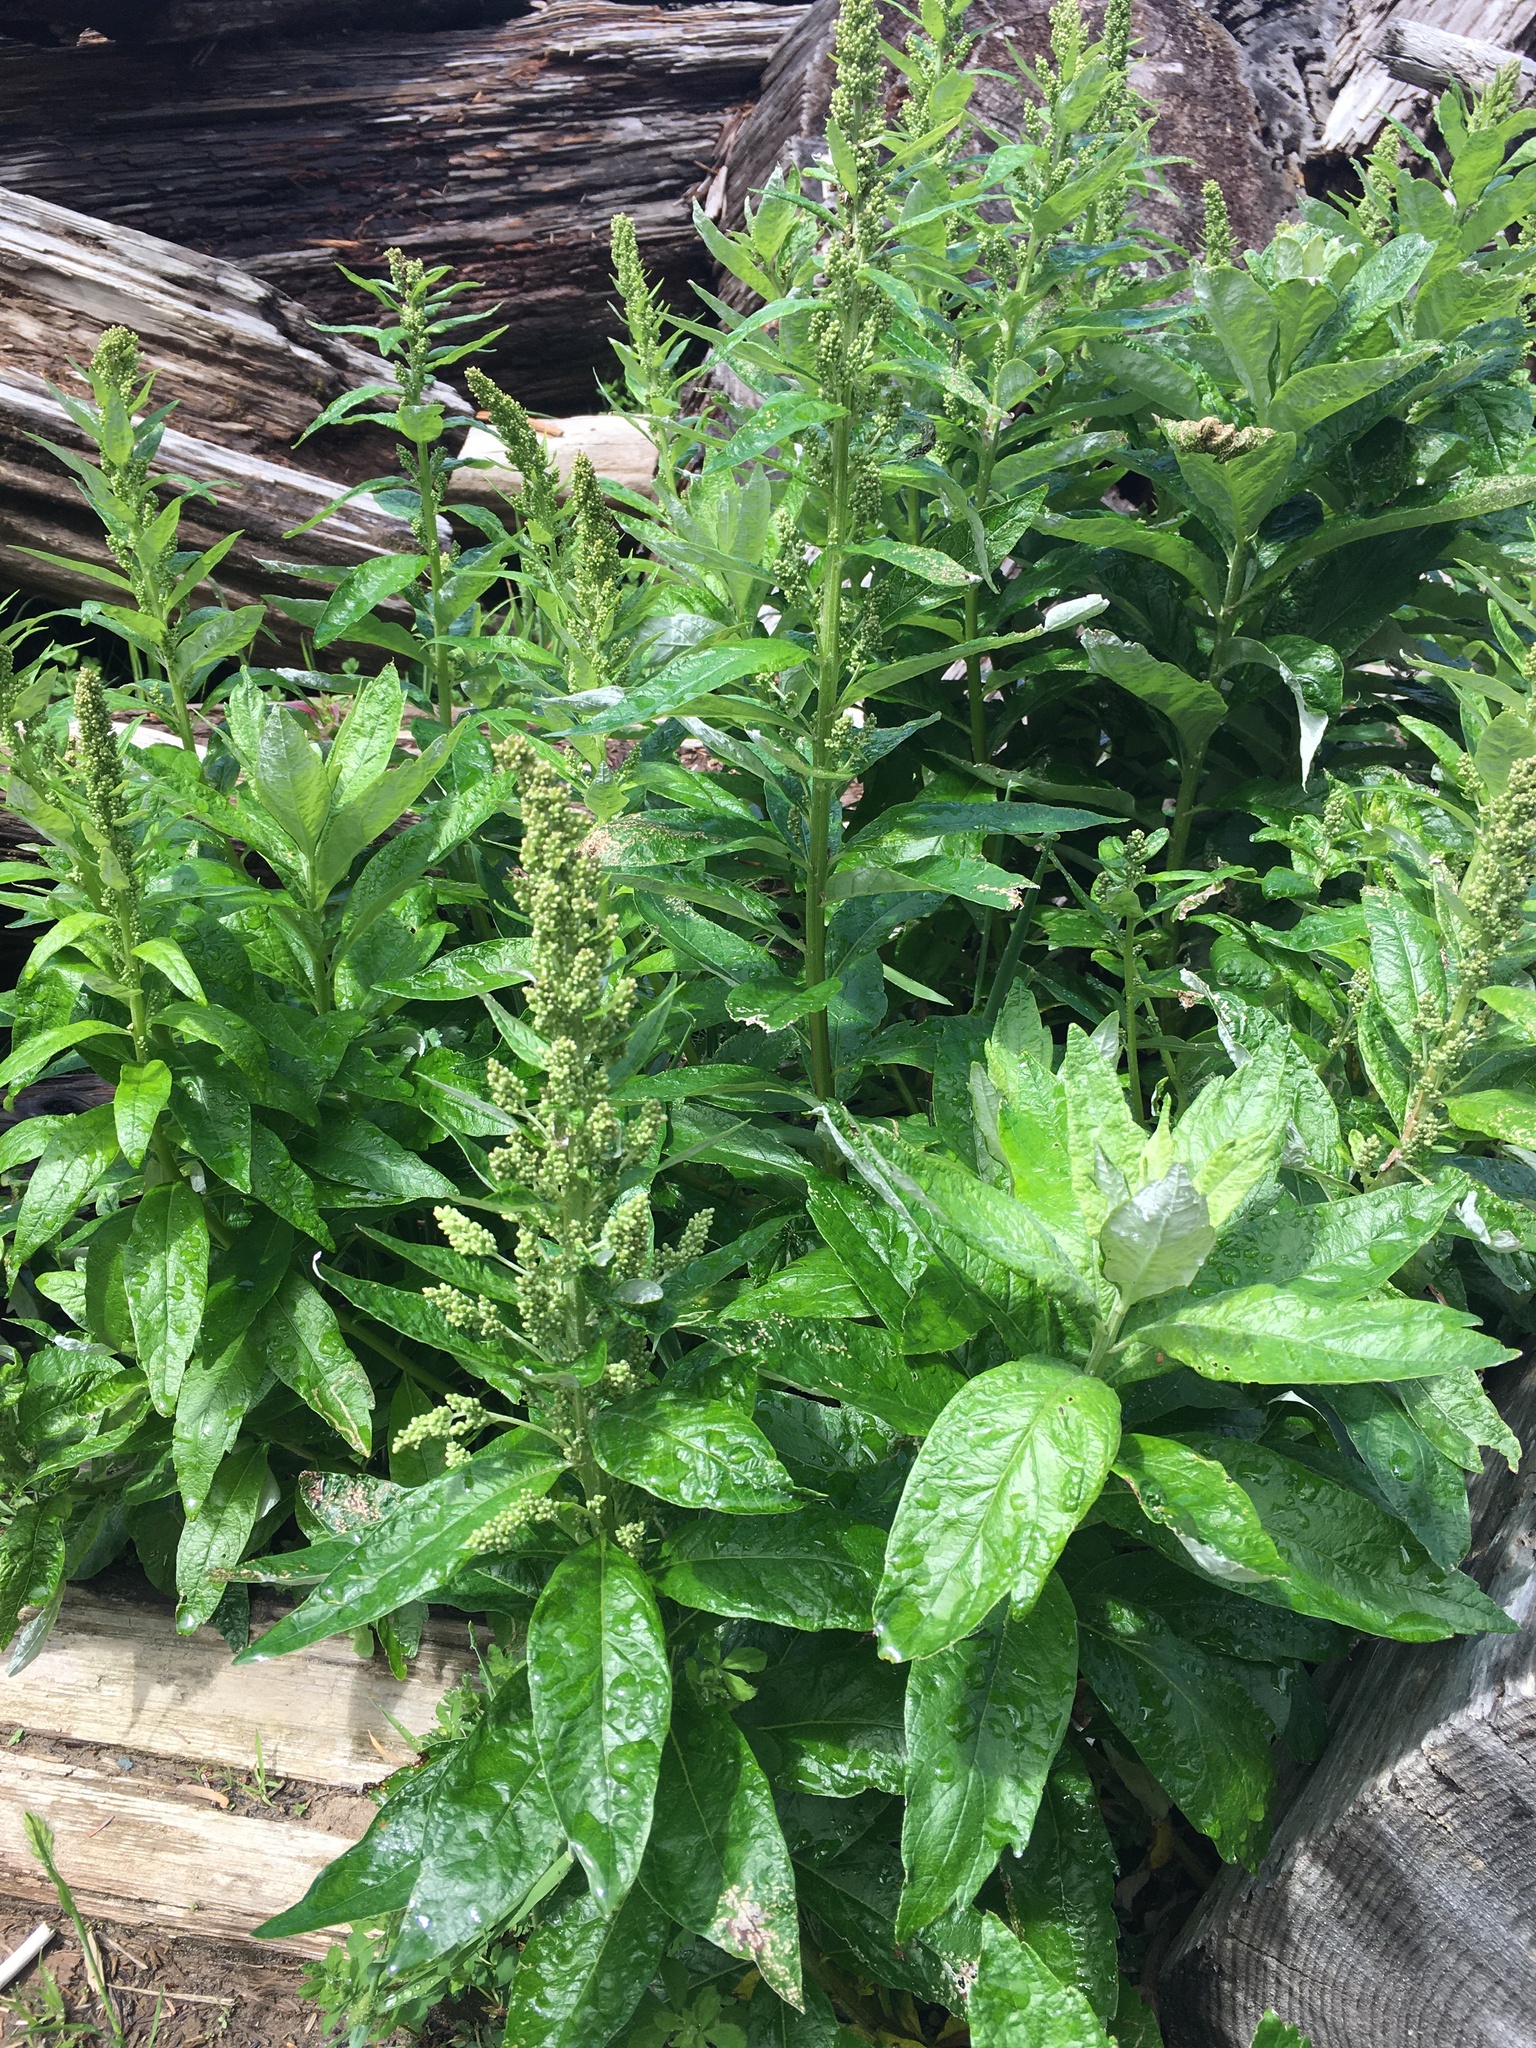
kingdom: Plantae
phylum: Tracheophyta
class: Magnoliopsida
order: Asterales
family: Asteraceae
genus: Artemisia
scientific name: Artemisia suksdorfii
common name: Suksdorf sagewort
